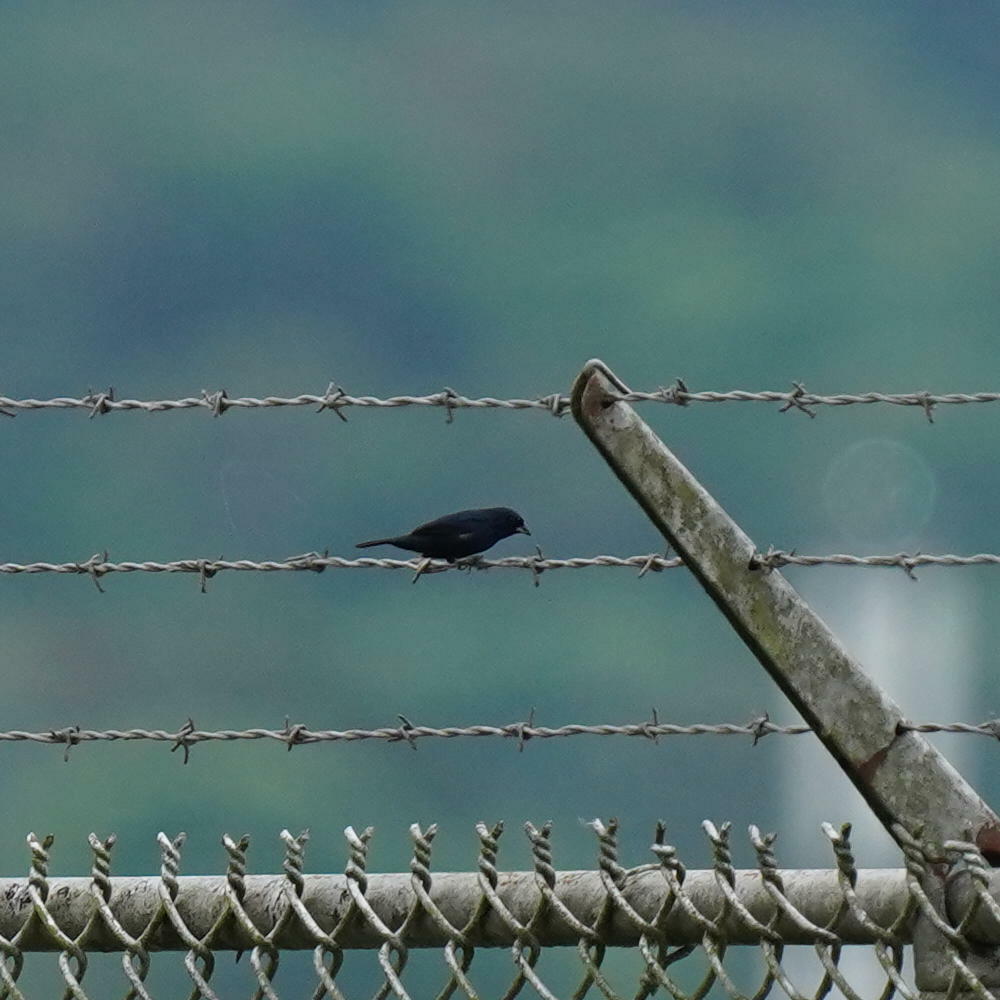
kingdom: Animalia
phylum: Chordata
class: Aves
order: Passeriformes
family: Thraupidae
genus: Volatinia
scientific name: Volatinia jacarina
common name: Blue-black grassquit
